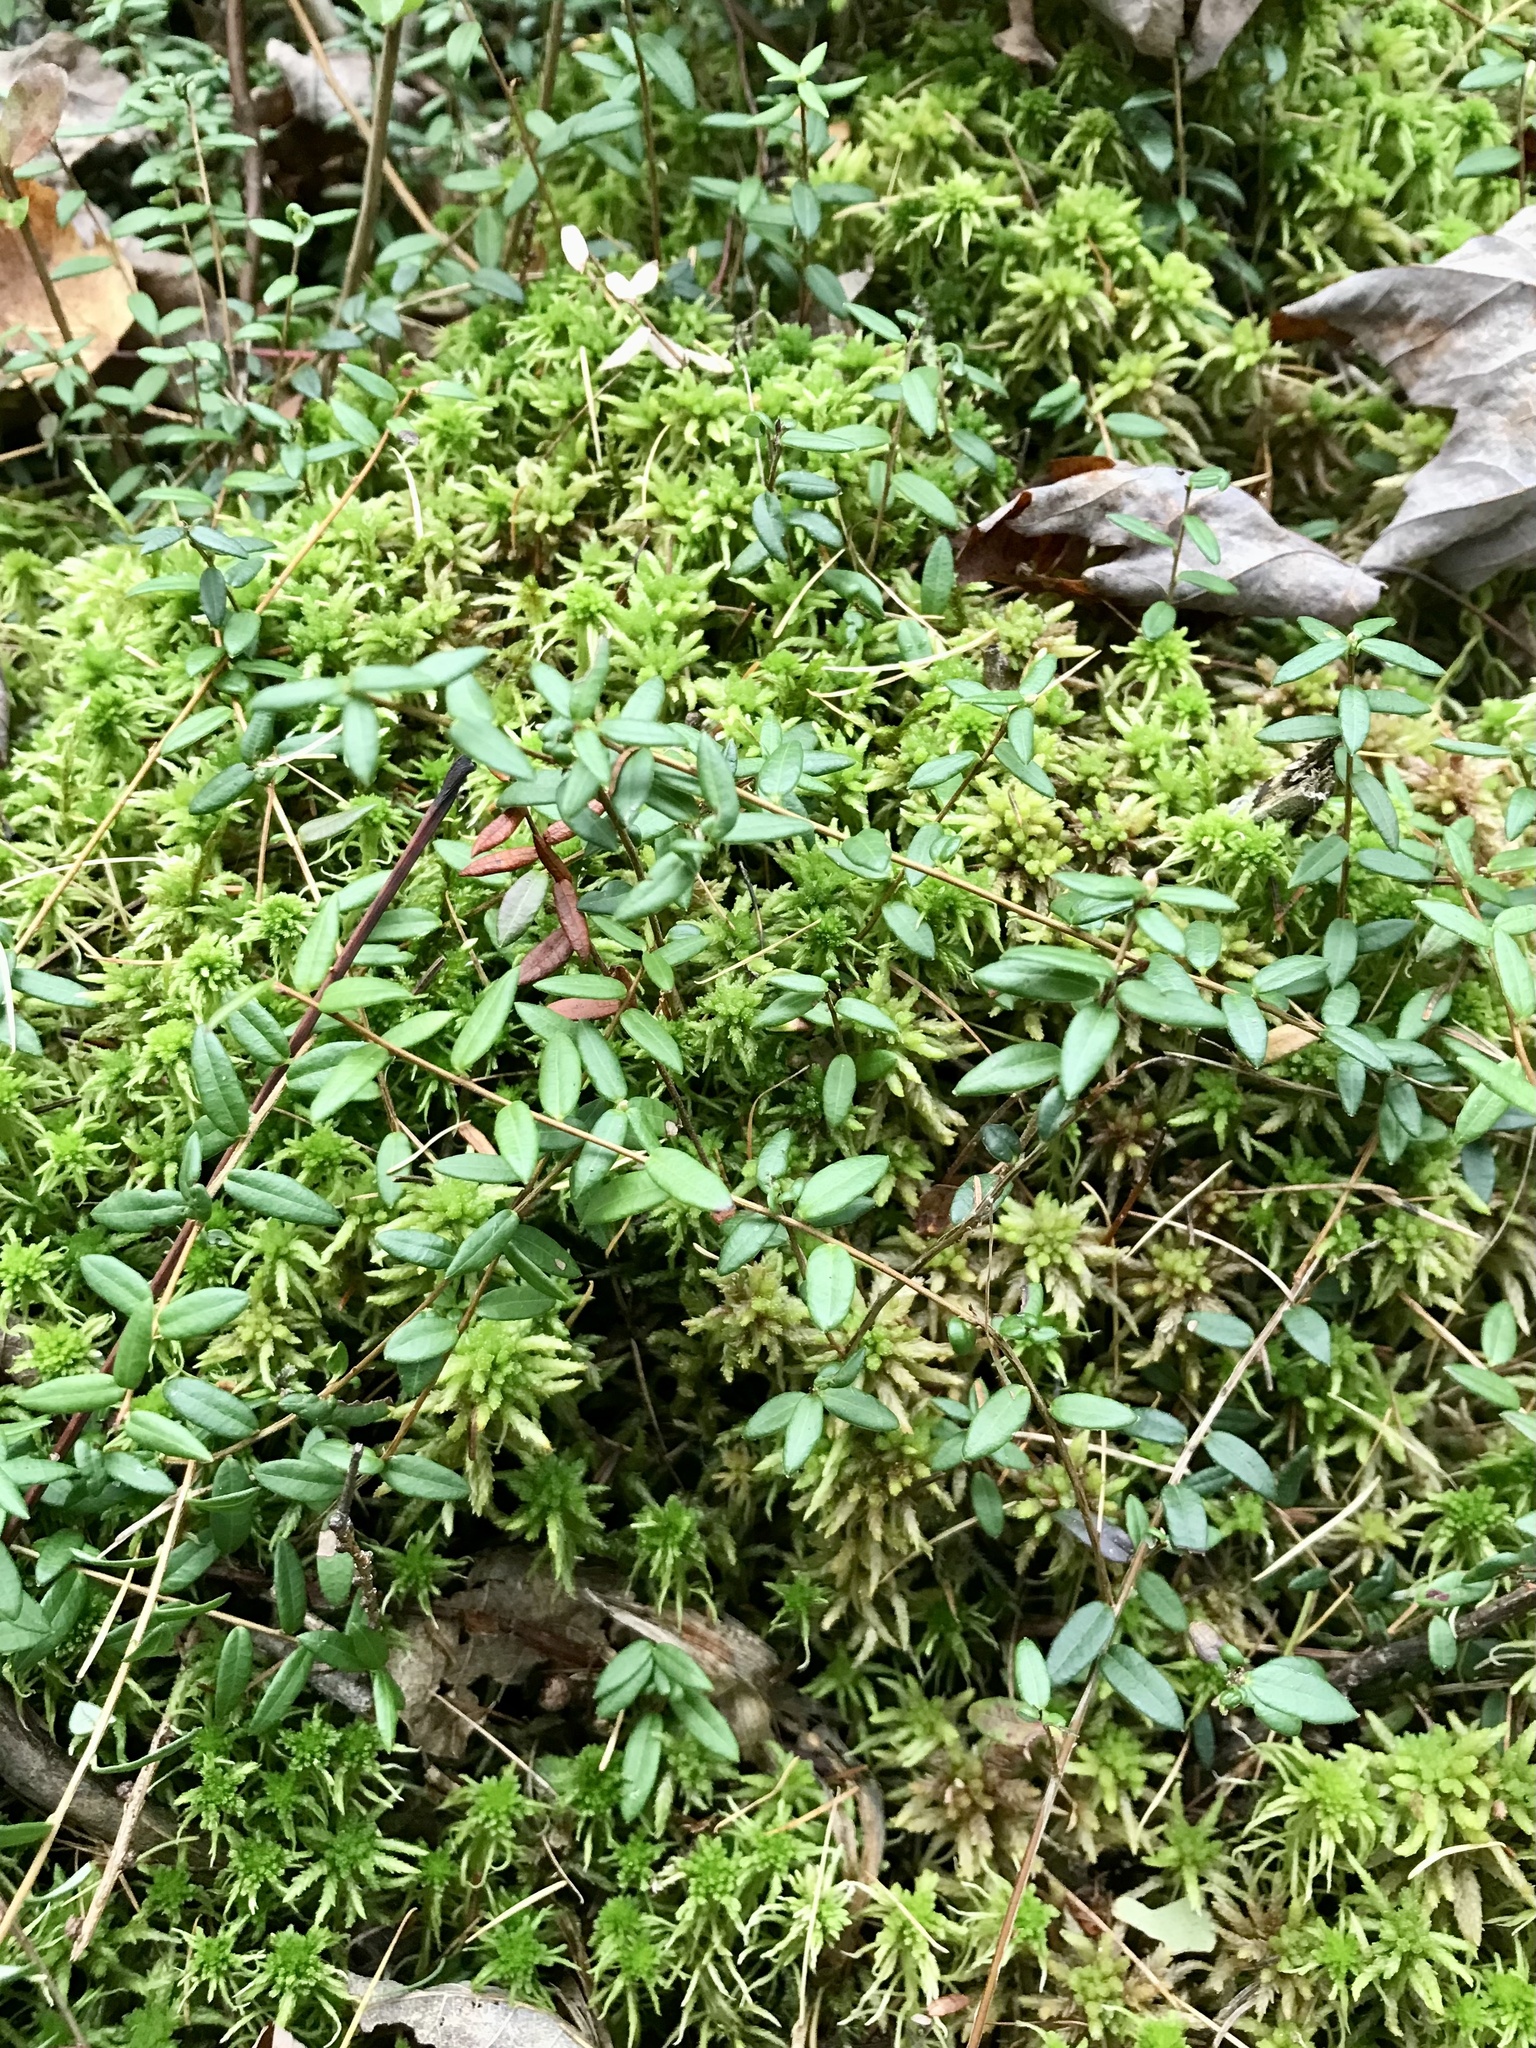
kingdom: Plantae
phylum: Tracheophyta
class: Magnoliopsida
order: Ericales
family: Ericaceae
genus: Vaccinium
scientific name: Vaccinium oxycoccos
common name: Cranberry
